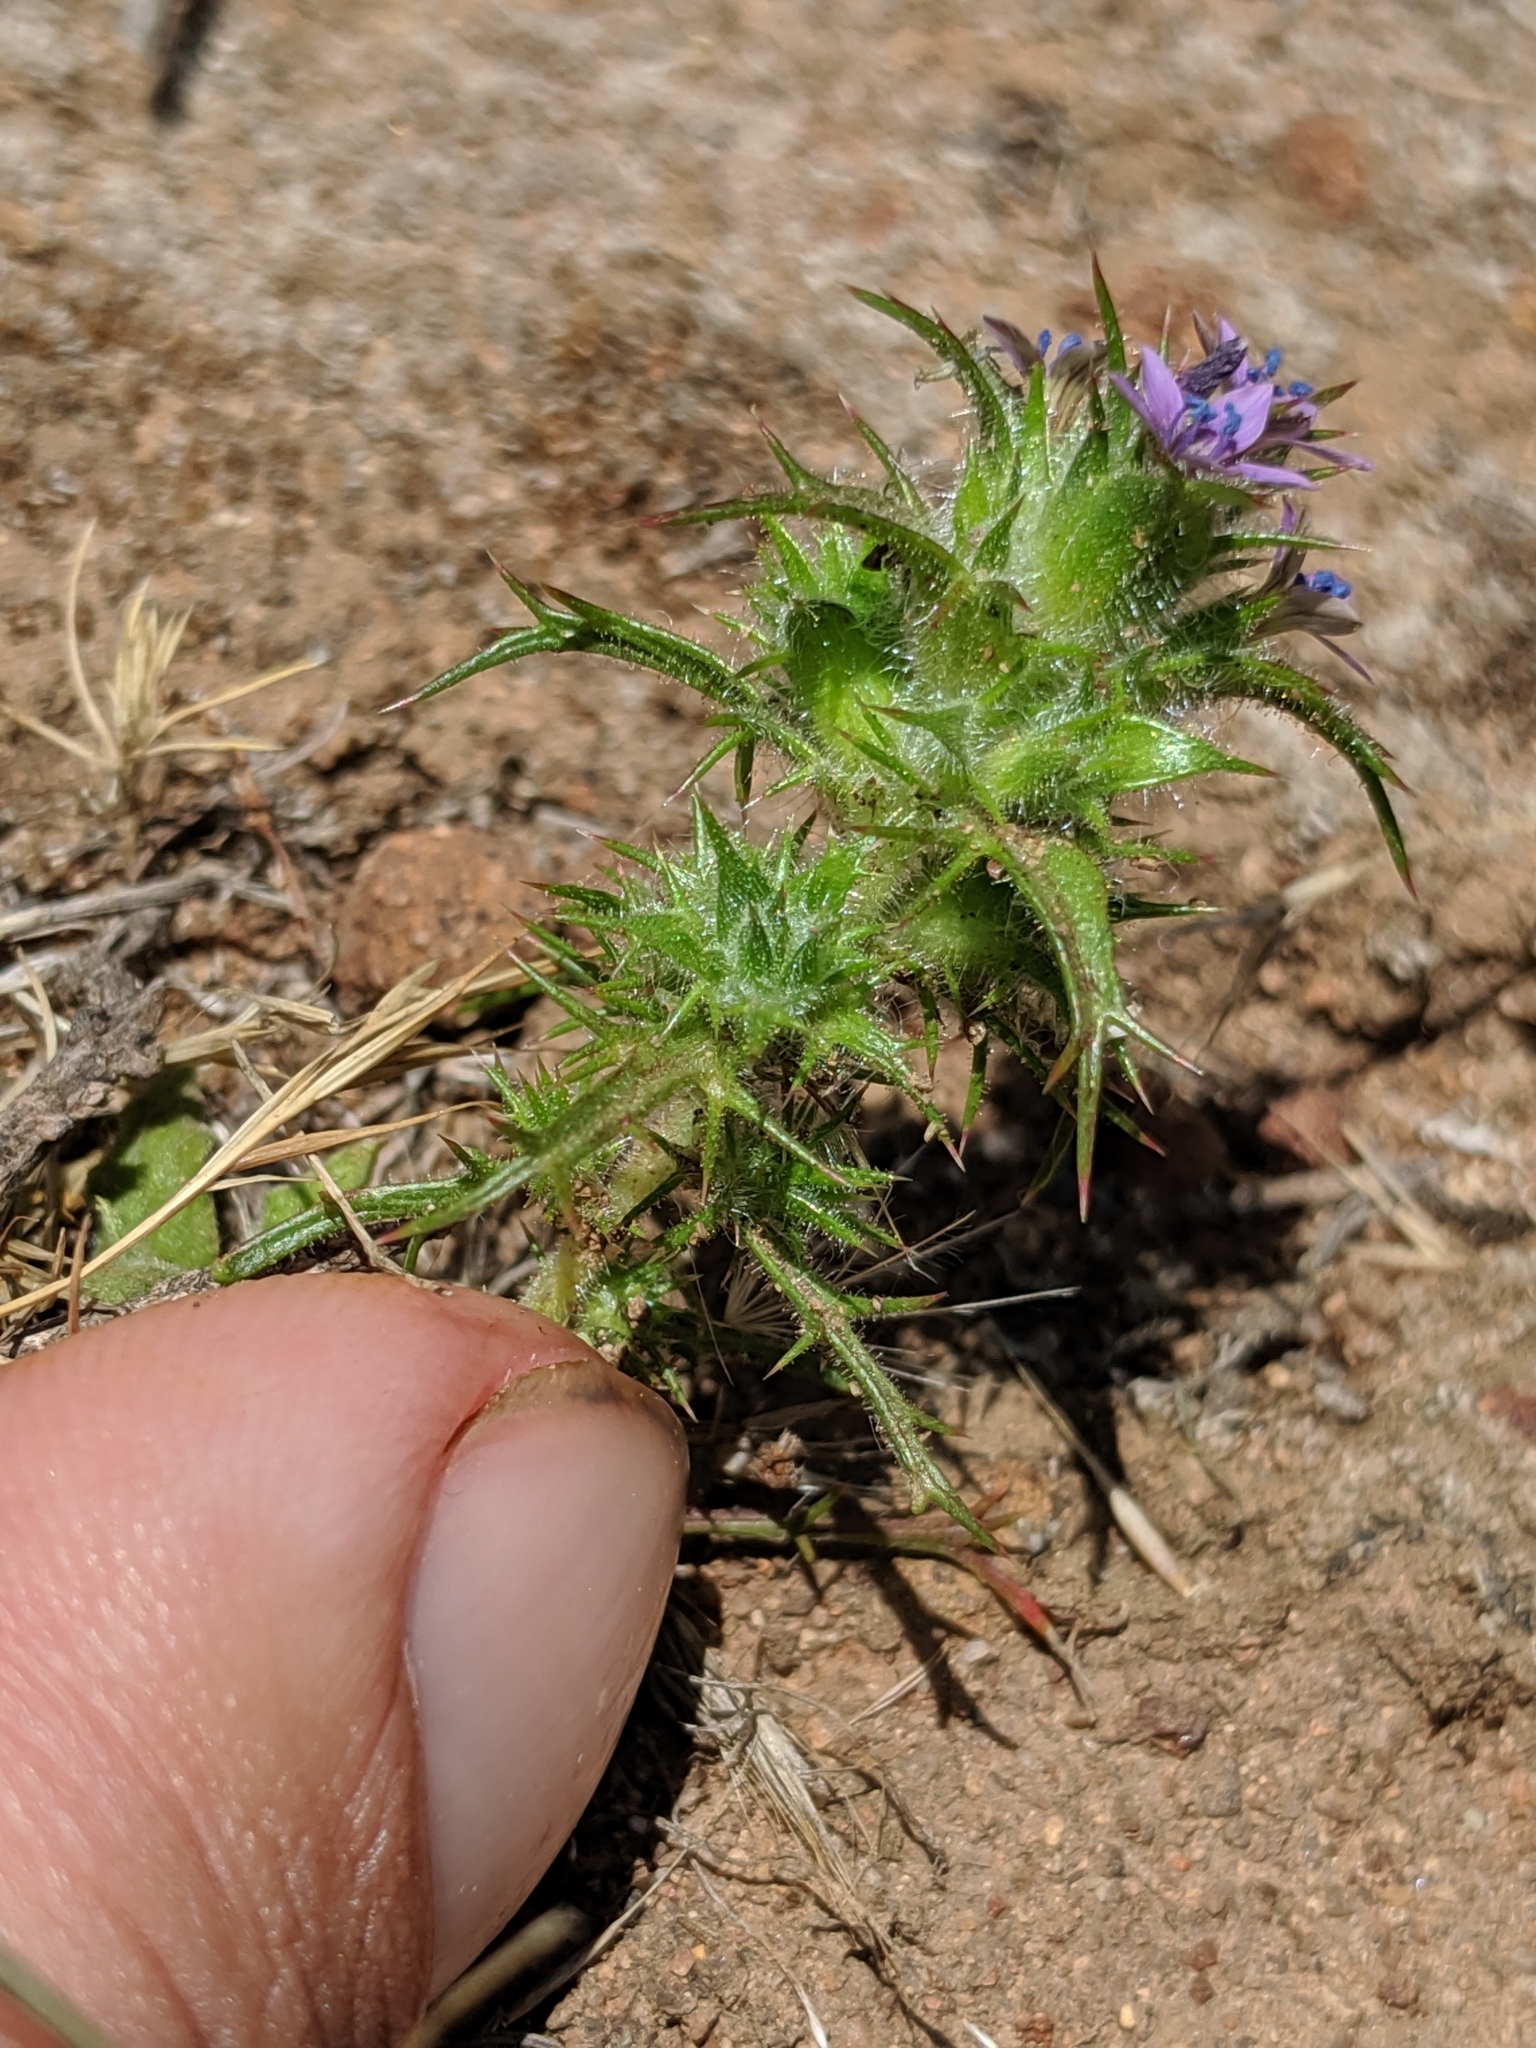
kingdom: Plantae
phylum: Tracheophyta
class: Magnoliopsida
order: Ericales
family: Polemoniaceae
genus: Navarretia
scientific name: Navarretia atractyloides
